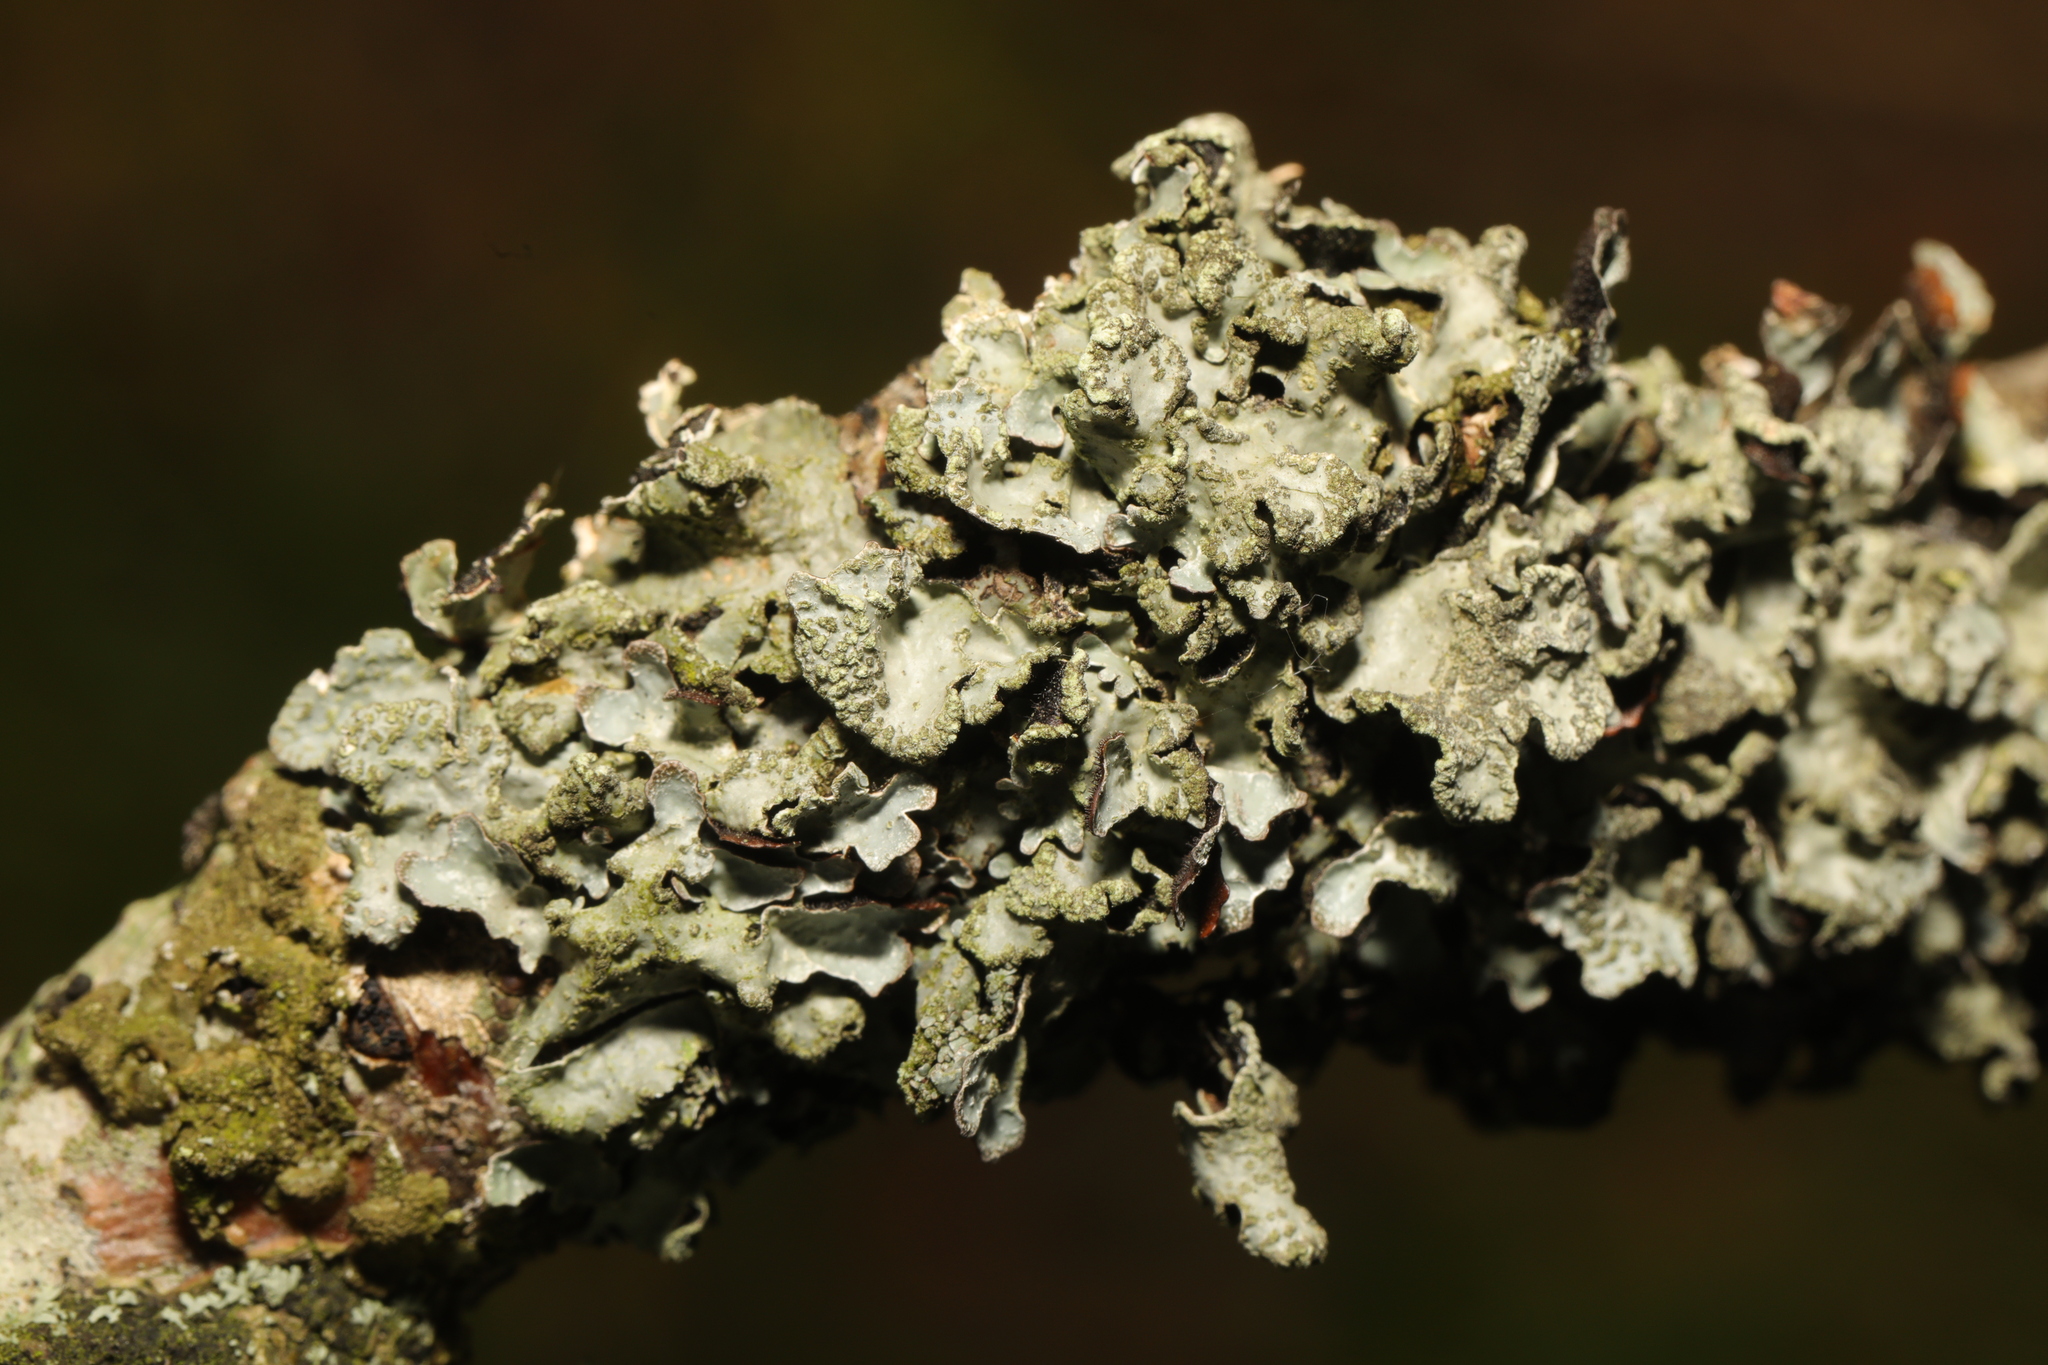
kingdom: Fungi
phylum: Ascomycota
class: Lecanoromycetes
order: Lecanorales
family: Parmeliaceae
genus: Parmelia
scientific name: Parmelia sulcata
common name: Netted shield lichen
